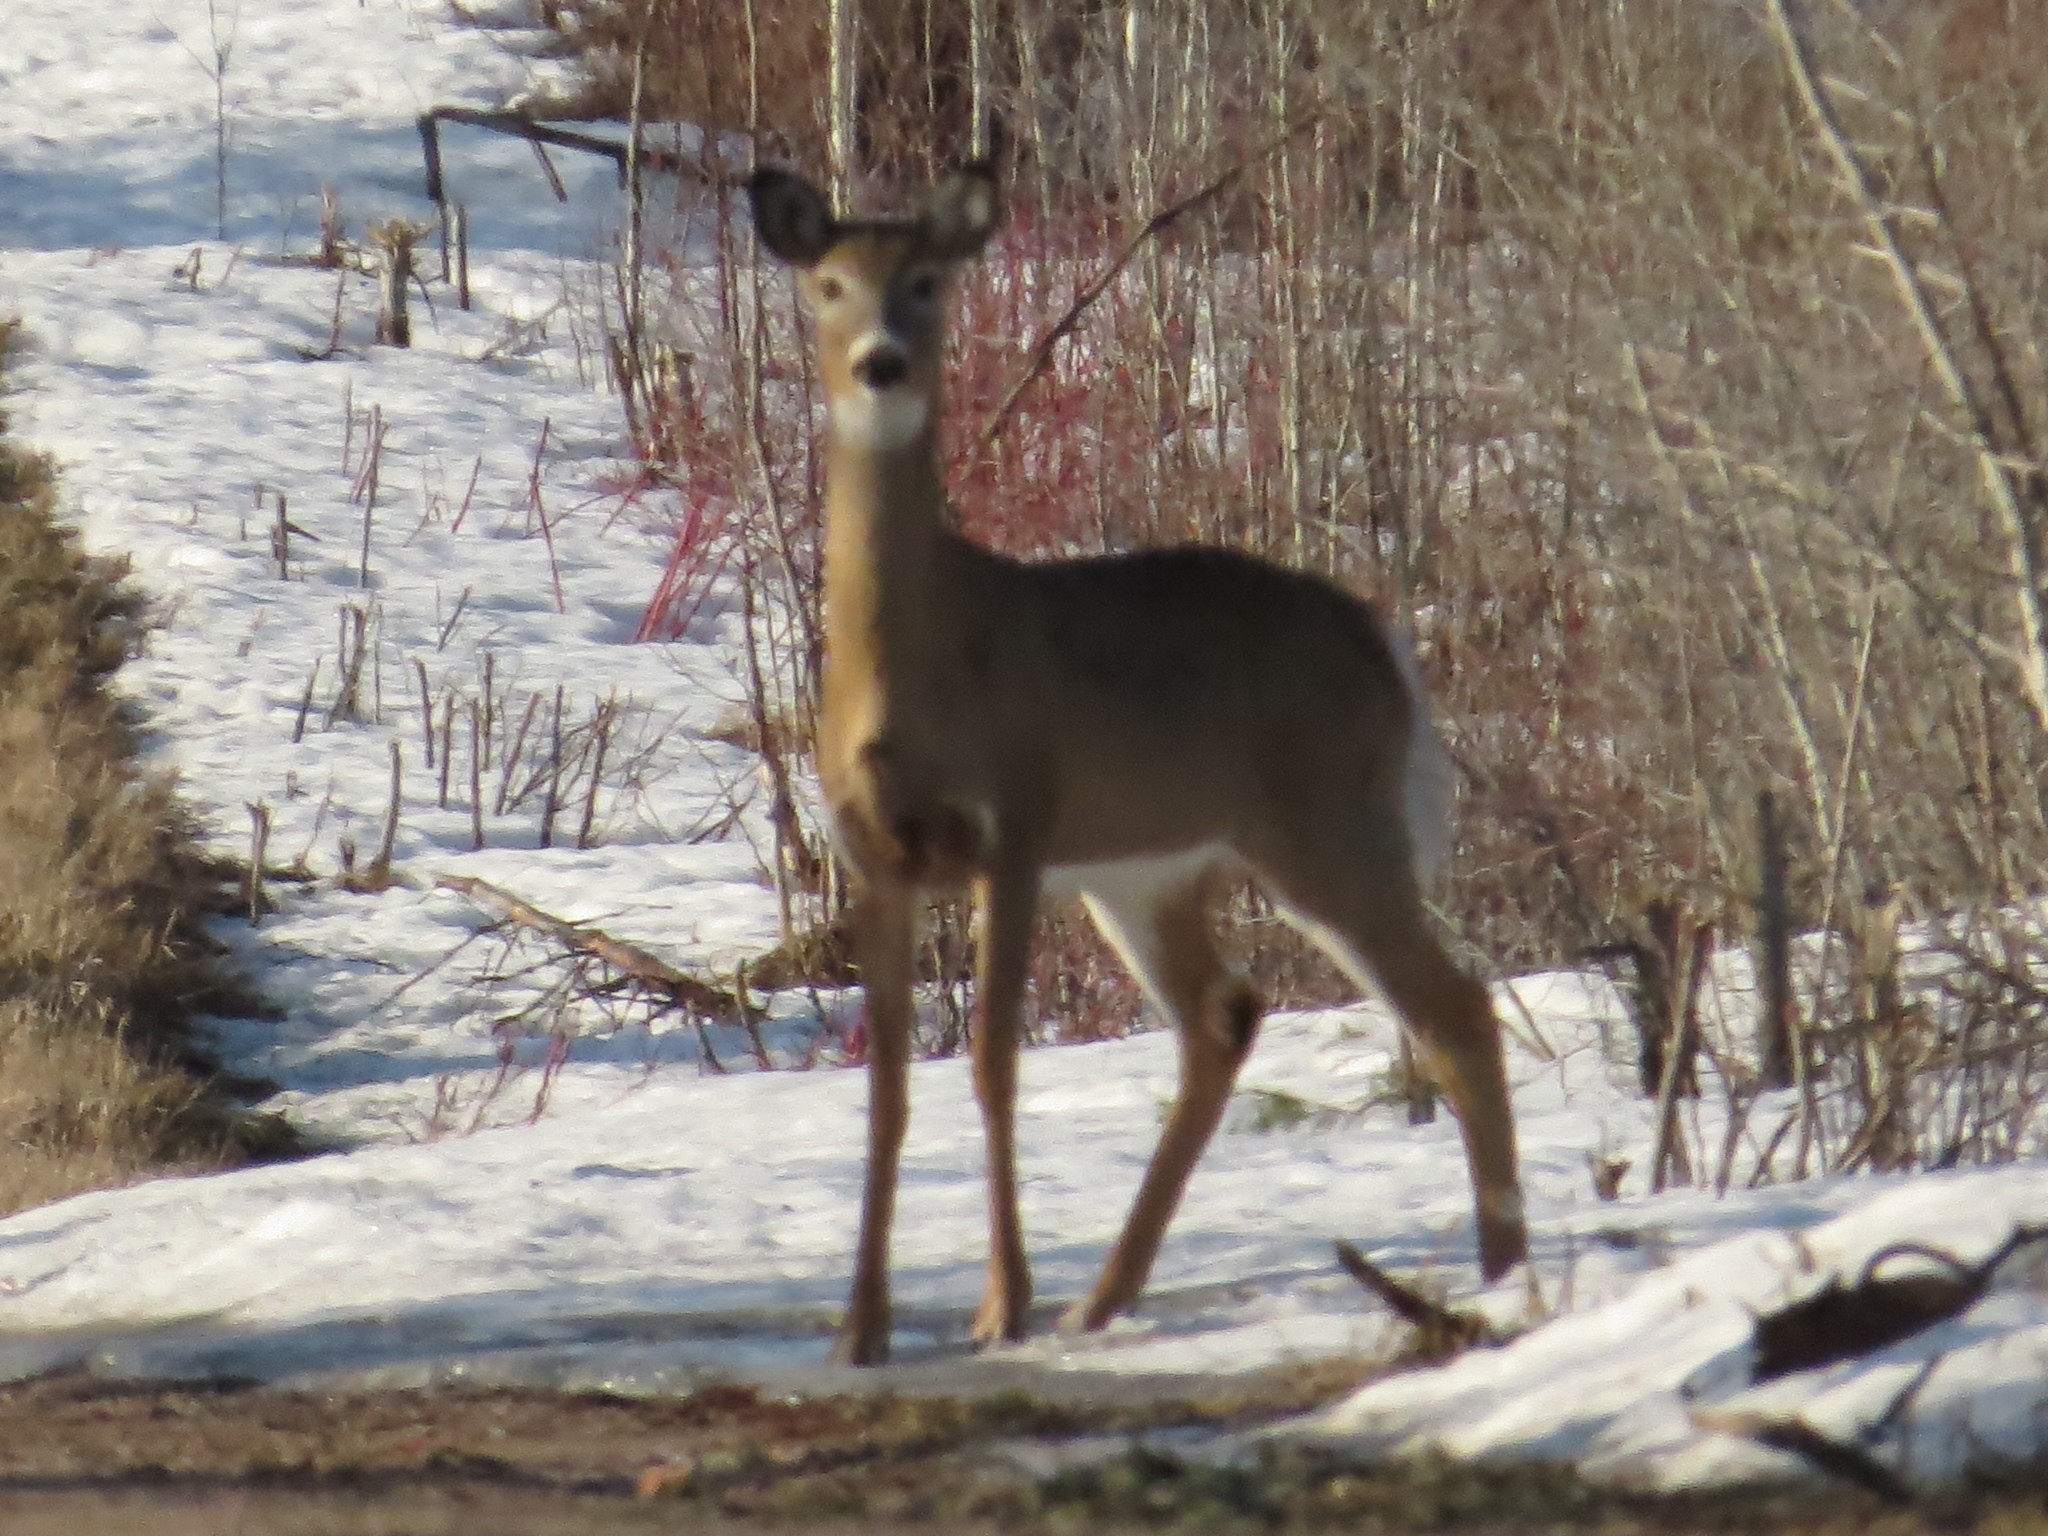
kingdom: Animalia
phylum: Chordata
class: Mammalia
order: Artiodactyla
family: Cervidae
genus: Odocoileus
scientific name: Odocoileus virginianus
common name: White-tailed deer
